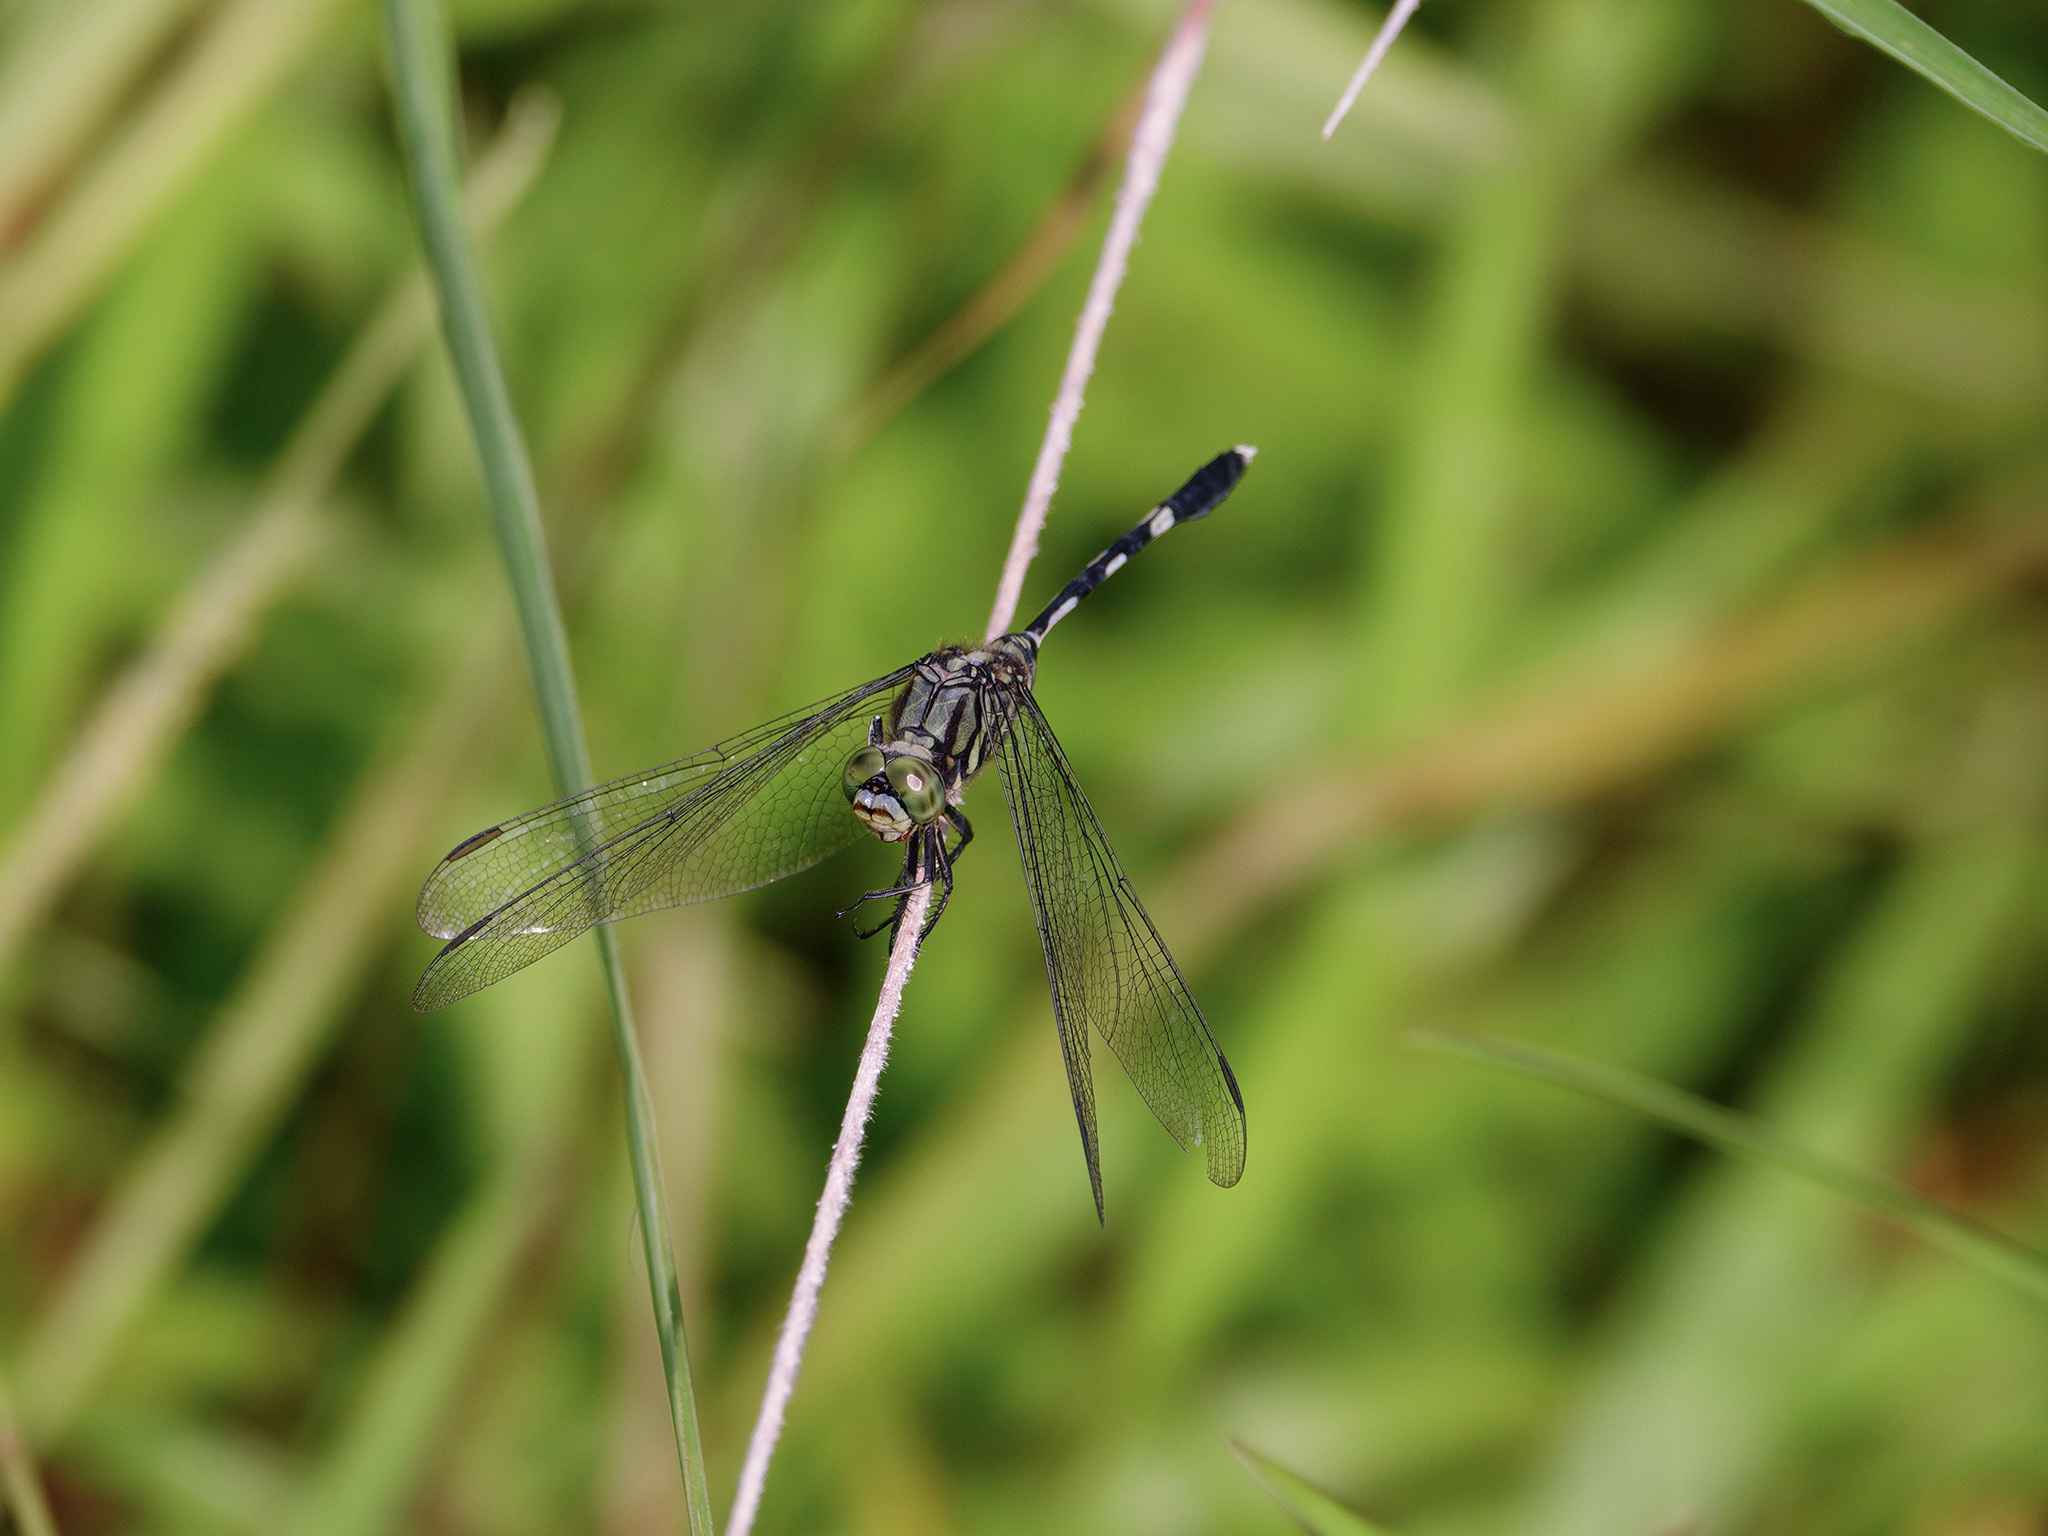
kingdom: Animalia
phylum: Arthropoda
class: Insecta
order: Odonata
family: Libellulidae
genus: Orthetrum
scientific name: Orthetrum sabina
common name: Slender skimmer
